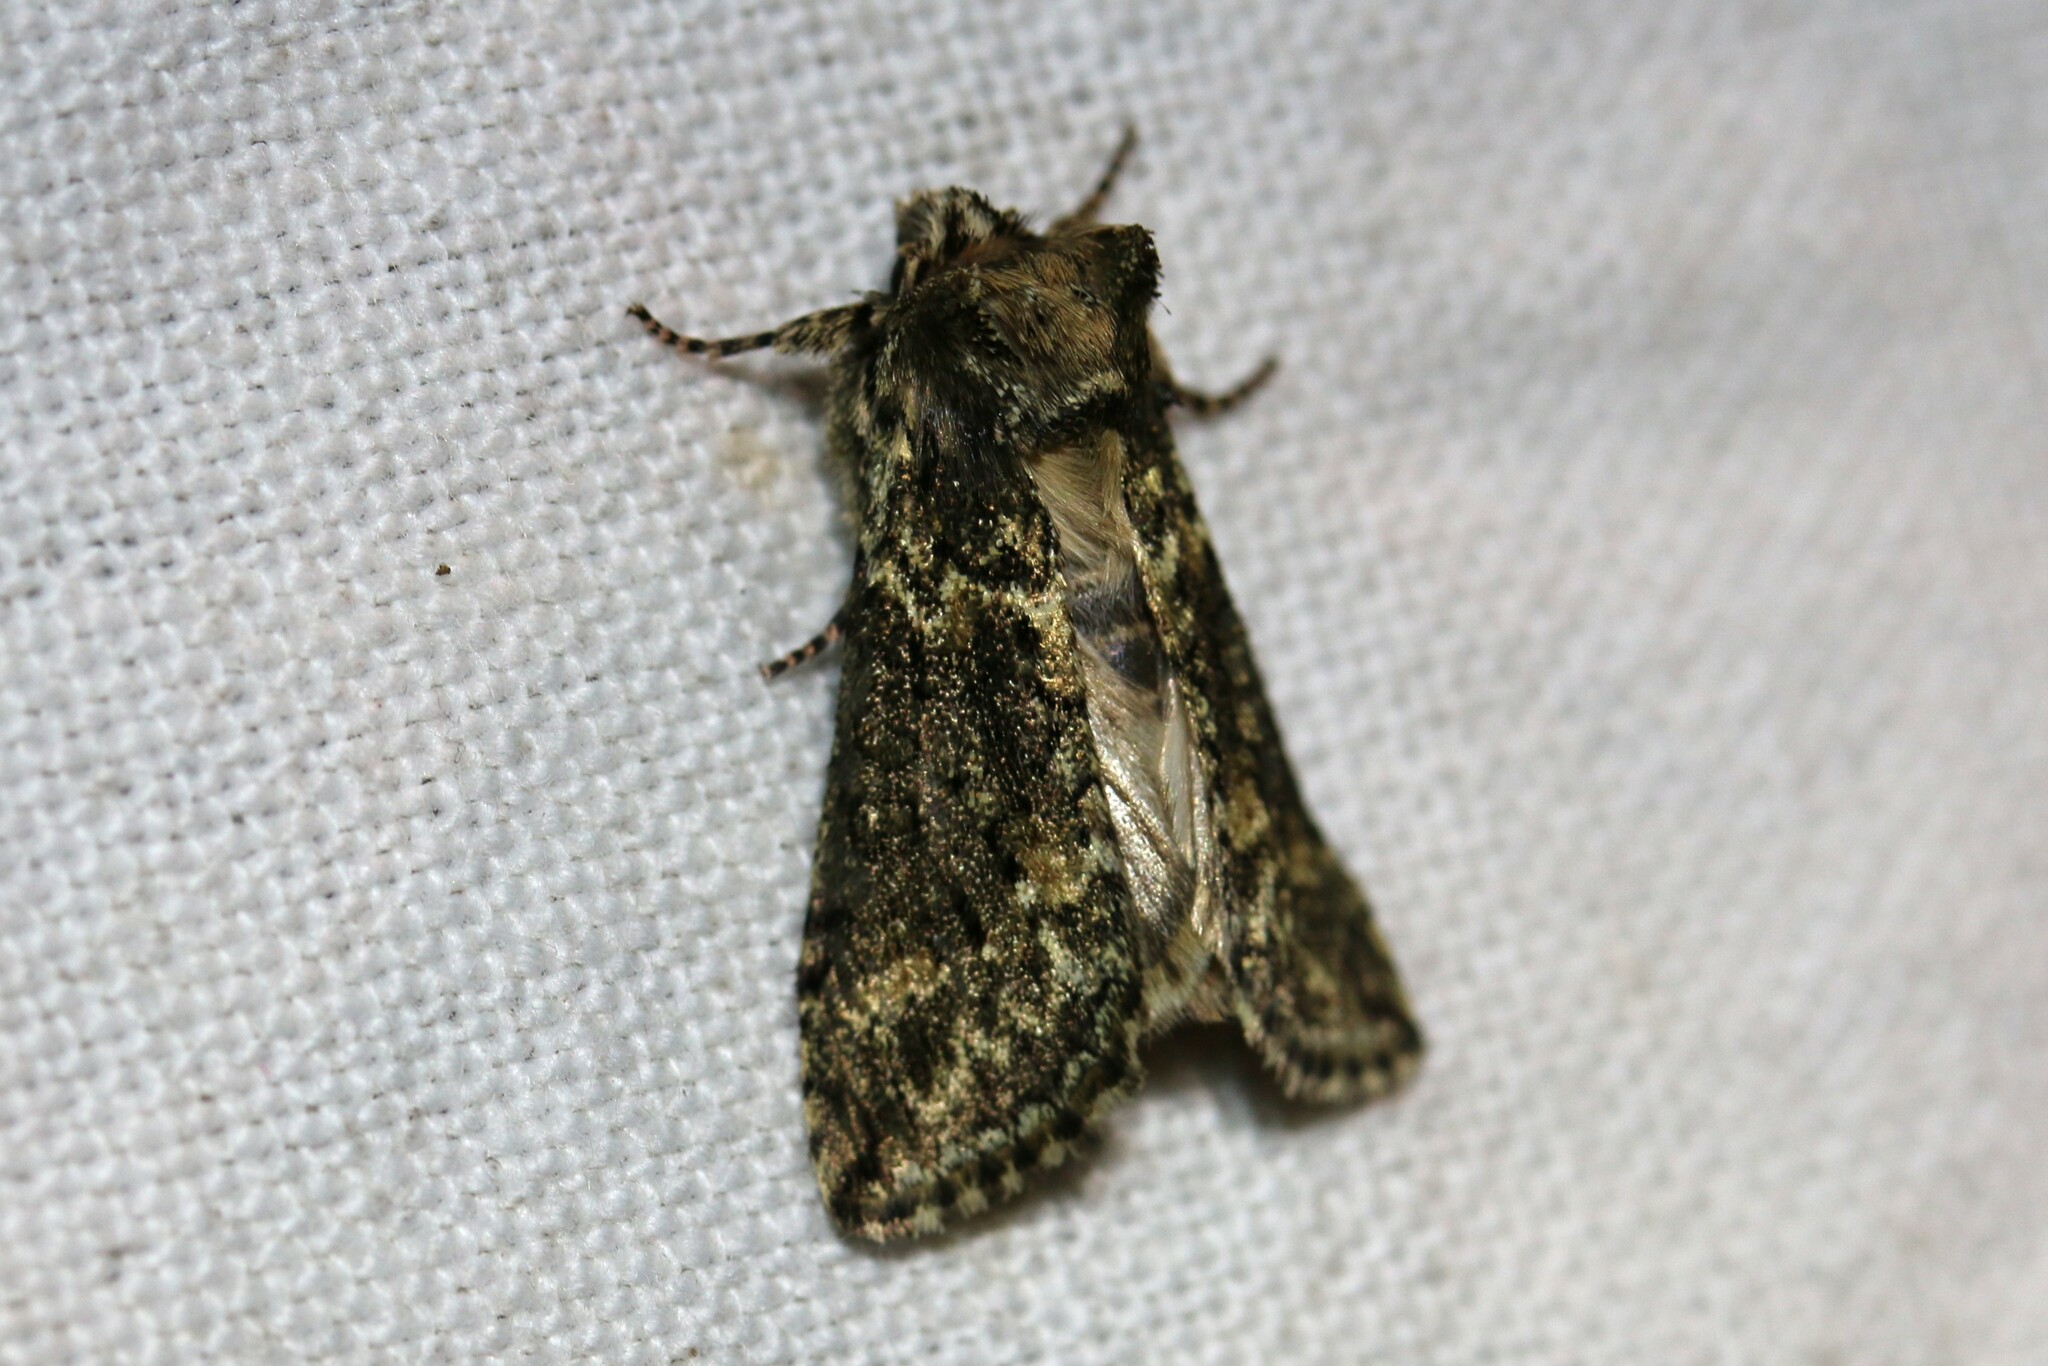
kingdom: Animalia
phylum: Arthropoda
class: Insecta
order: Lepidoptera
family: Drepanidae
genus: Polyploca
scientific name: Polyploca ridens
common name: Frosted green
